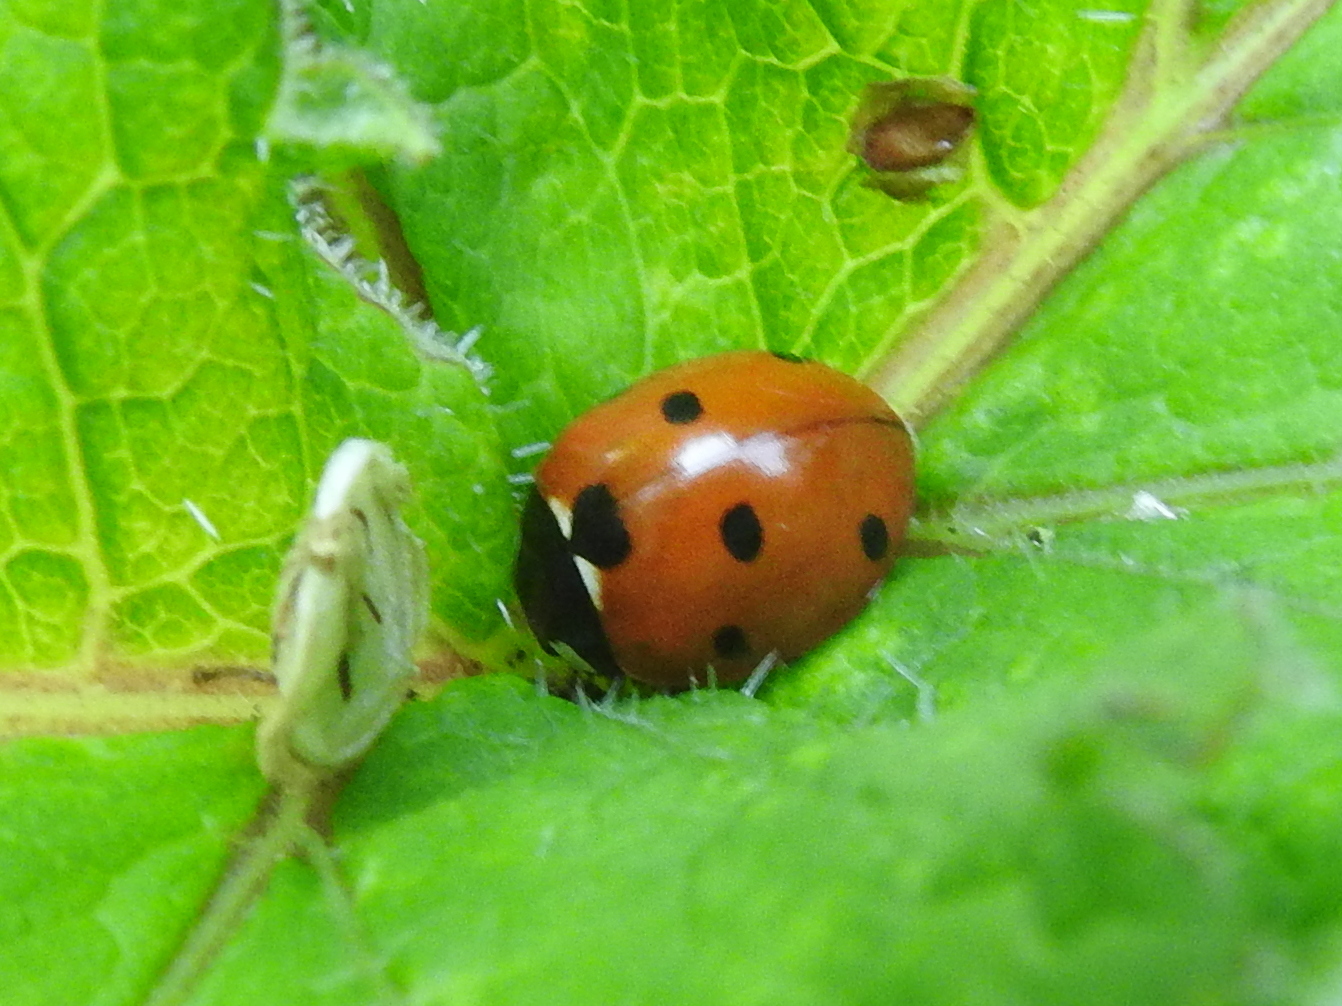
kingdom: Animalia
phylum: Arthropoda
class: Insecta
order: Coleoptera
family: Coccinellidae
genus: Coccinella
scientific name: Coccinella septempunctata
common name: Sevenspotted lady beetle
